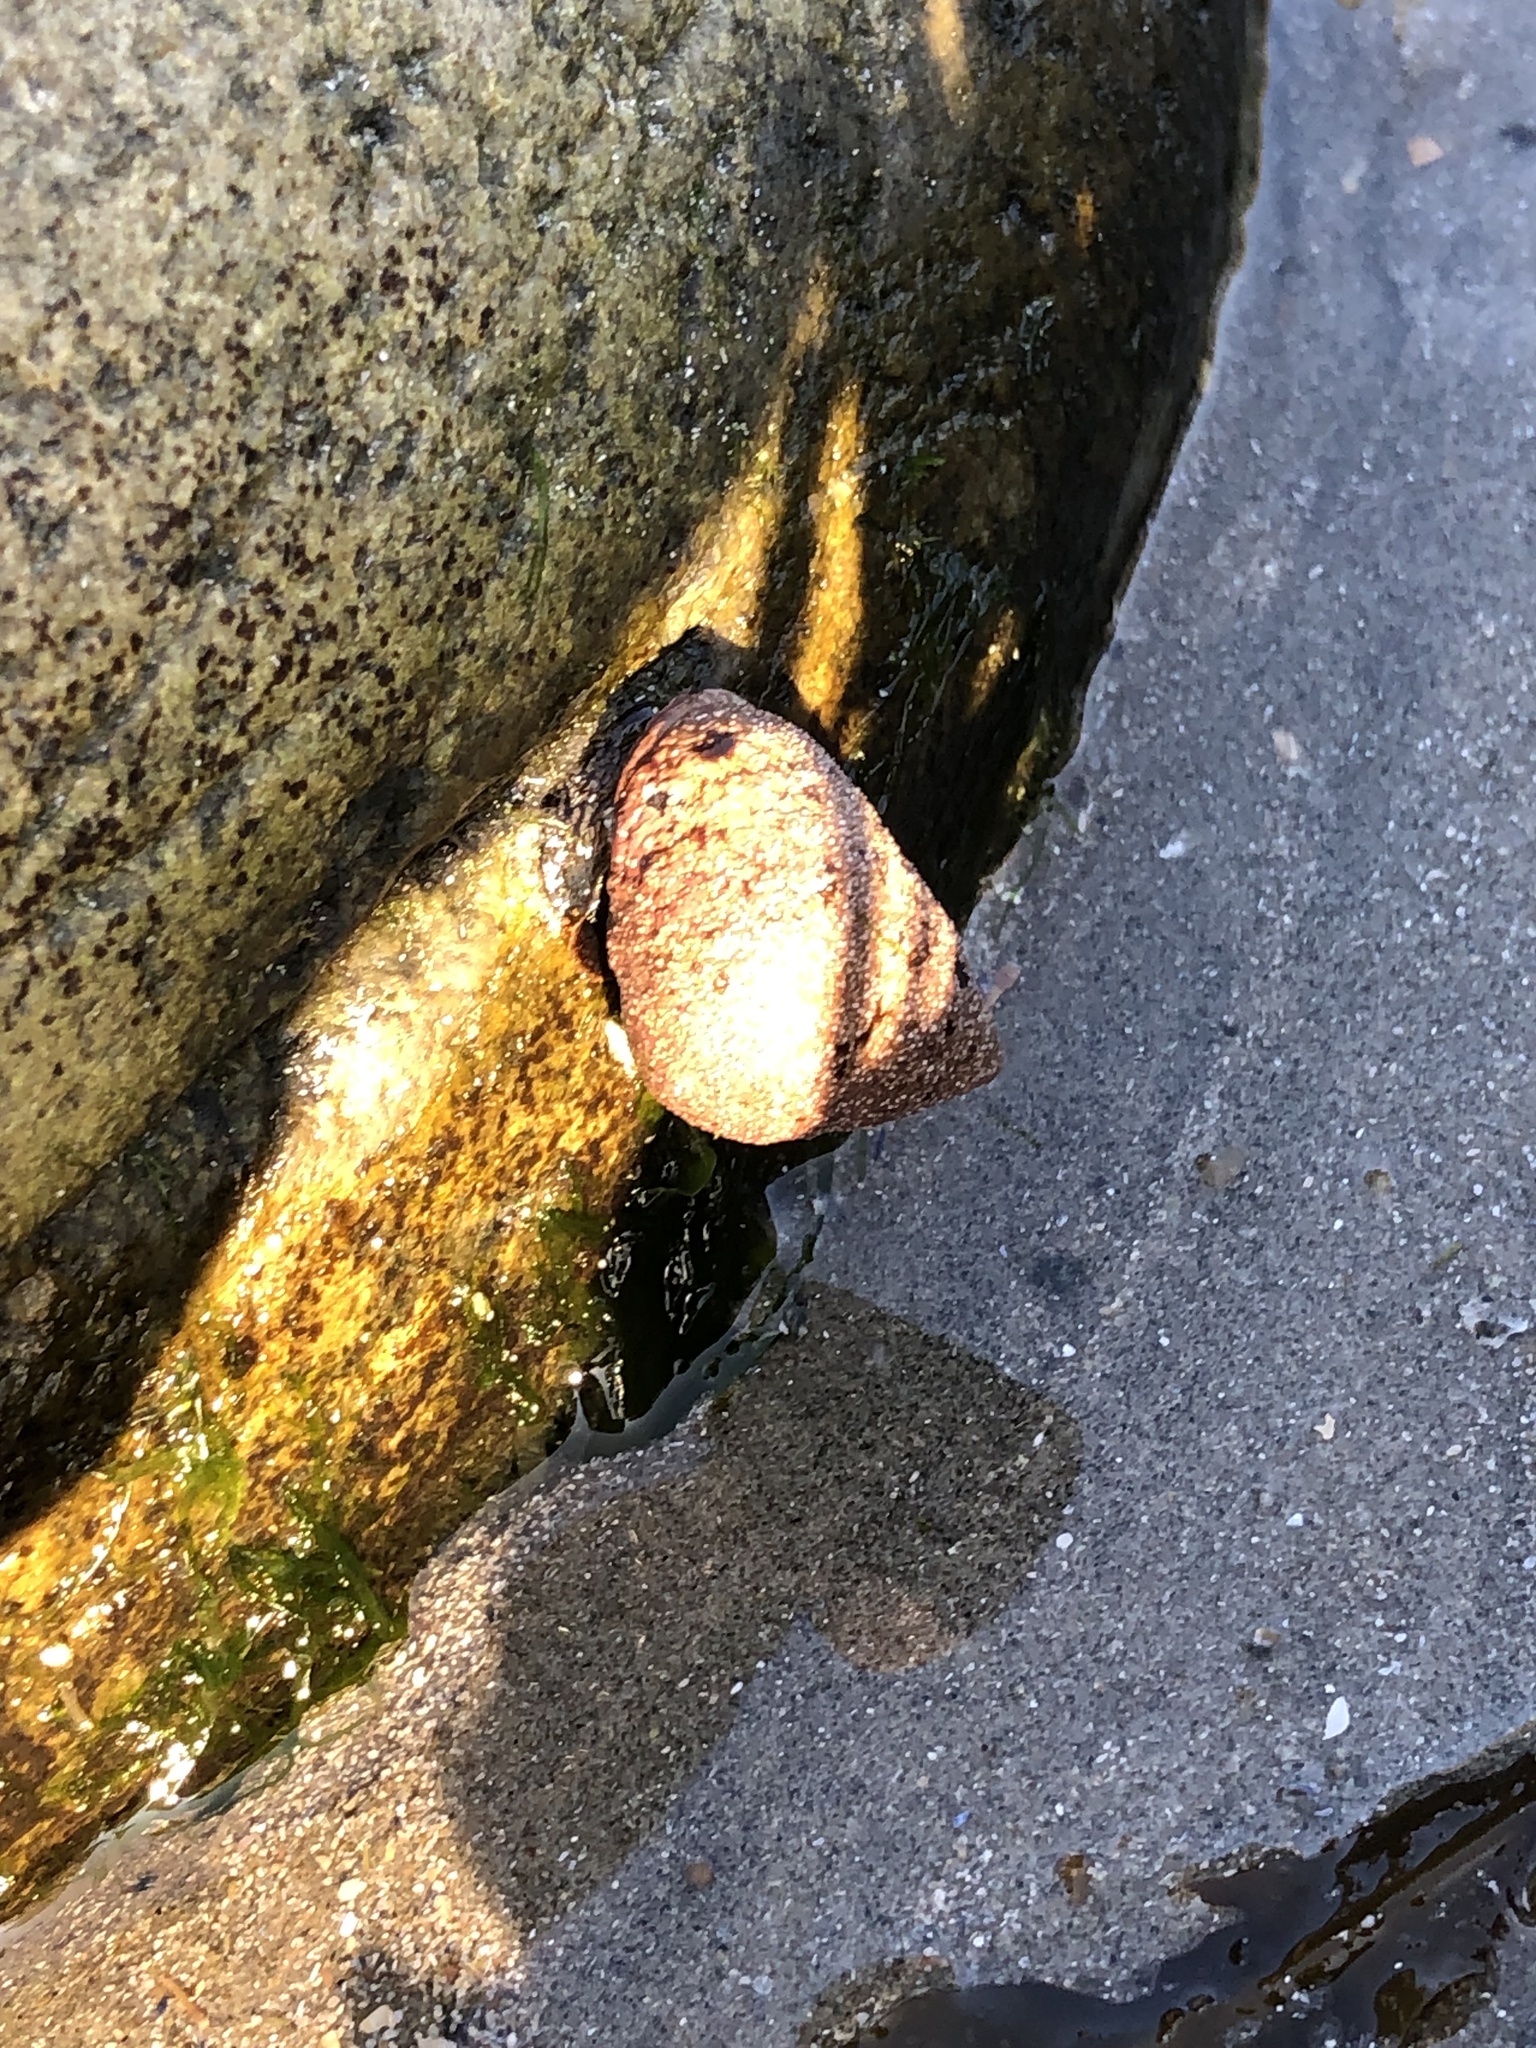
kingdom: Animalia
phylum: Mollusca
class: Gastropoda
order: Littorinimorpha
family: Littorinidae
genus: Littorina
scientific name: Littorina littorea
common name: Common periwinkle
